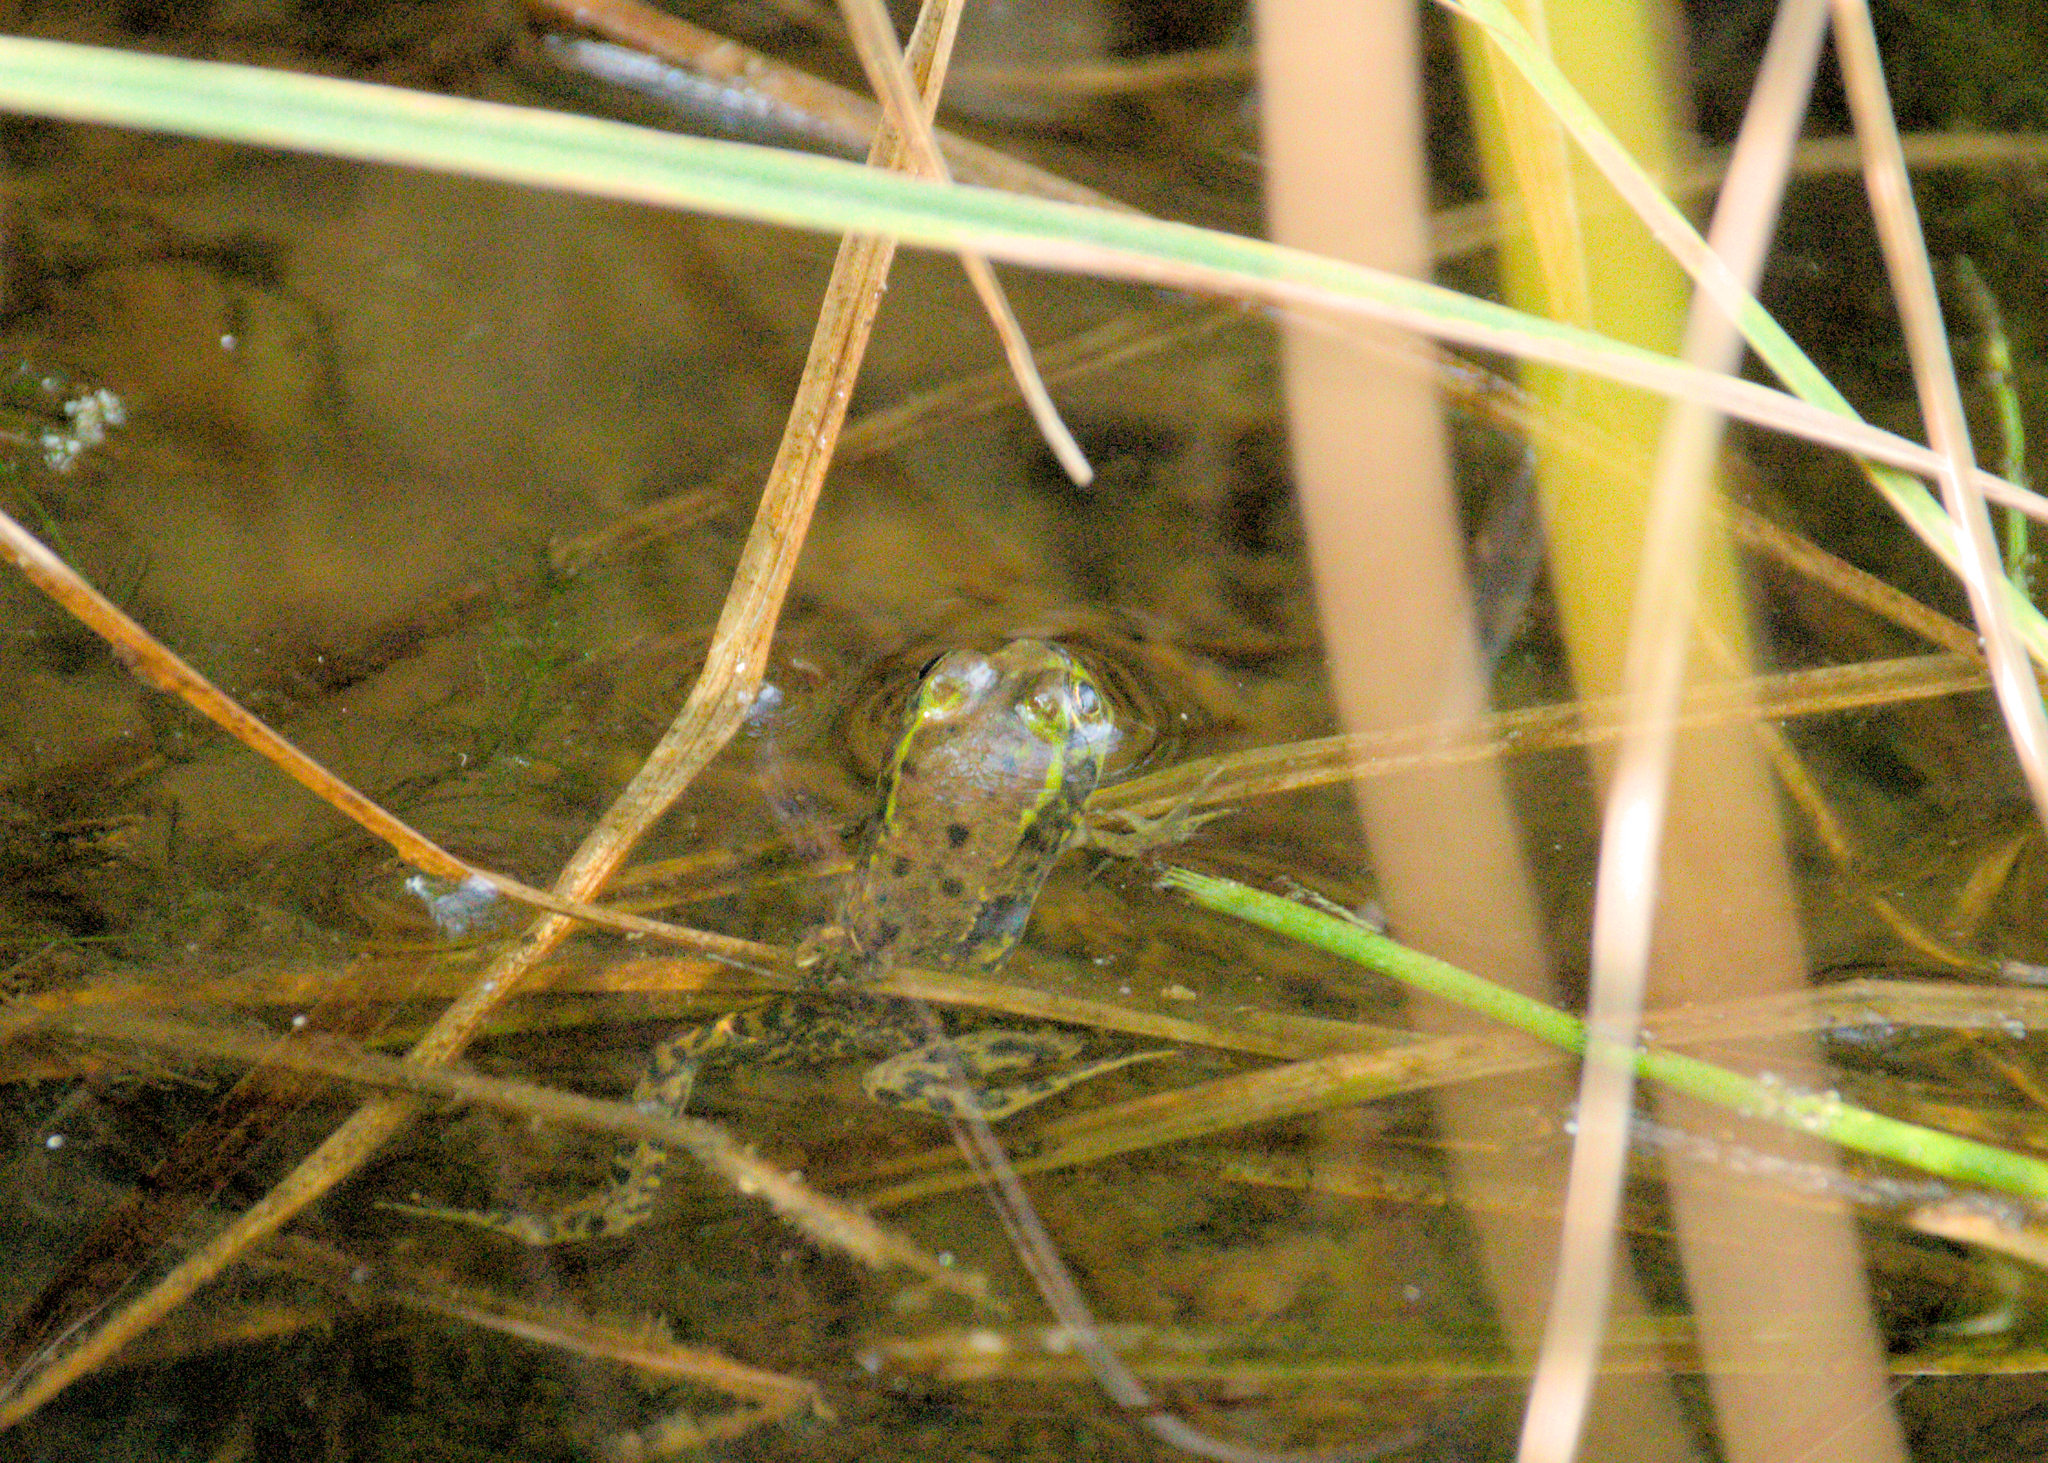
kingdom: Animalia
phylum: Chordata
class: Amphibia
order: Anura
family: Ranidae
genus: Lithobates
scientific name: Lithobates septentrionalis
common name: Mink frog
